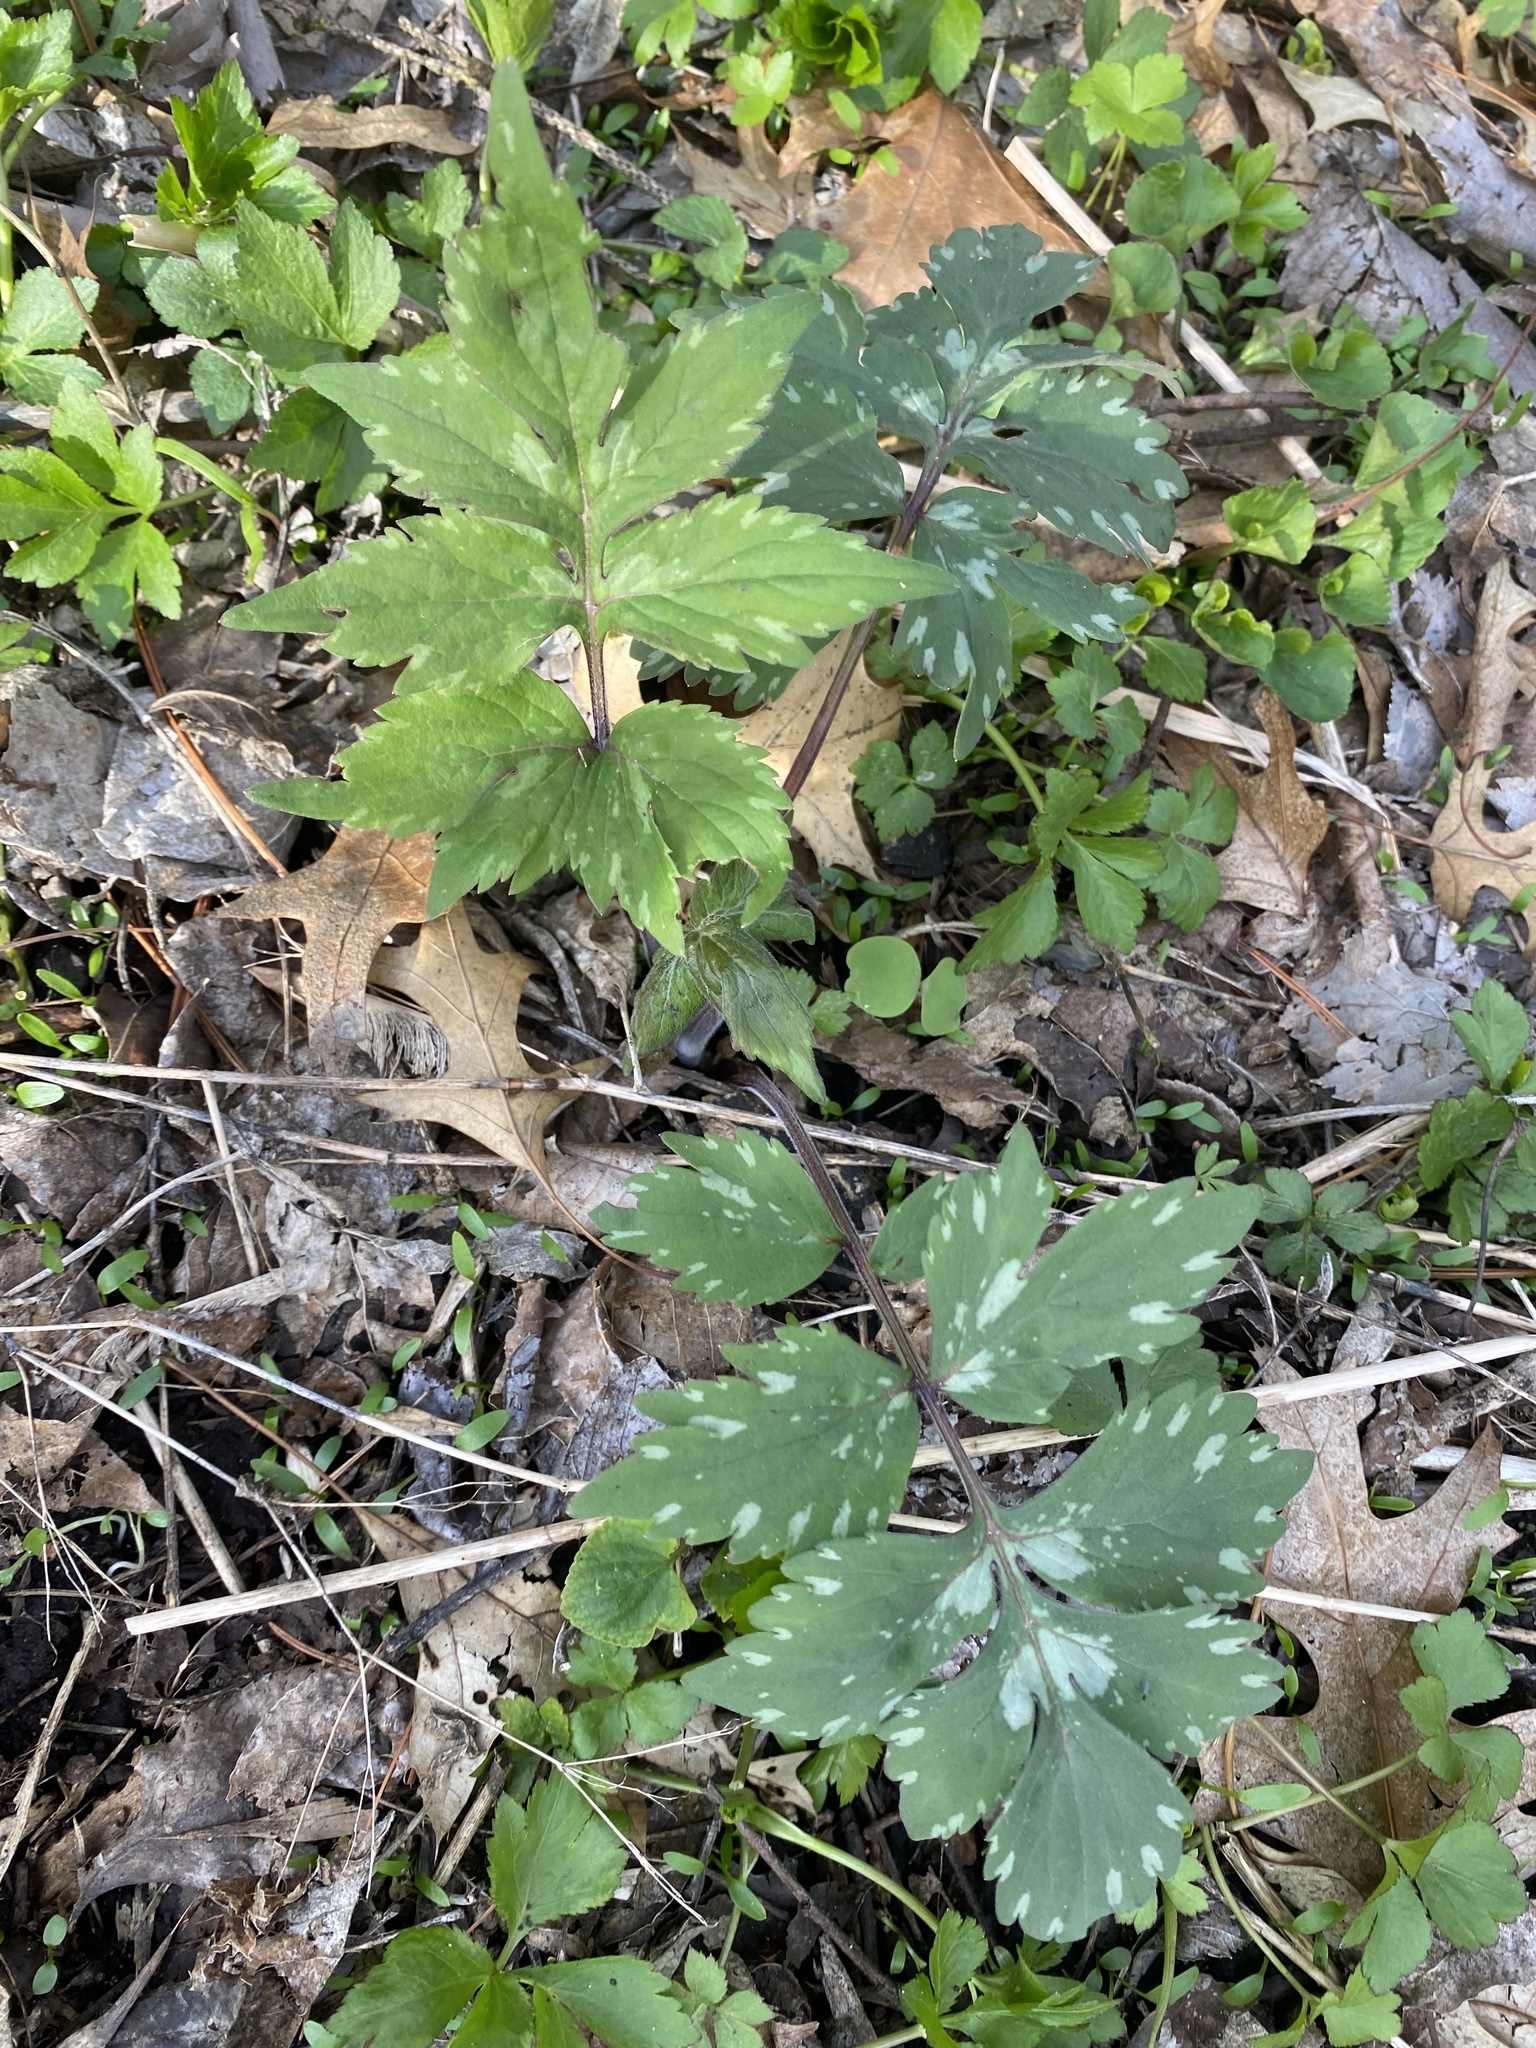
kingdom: Plantae
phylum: Tracheophyta
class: Magnoliopsida
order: Boraginales
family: Hydrophyllaceae
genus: Hydrophyllum
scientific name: Hydrophyllum virginianum
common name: Virginia waterleaf
